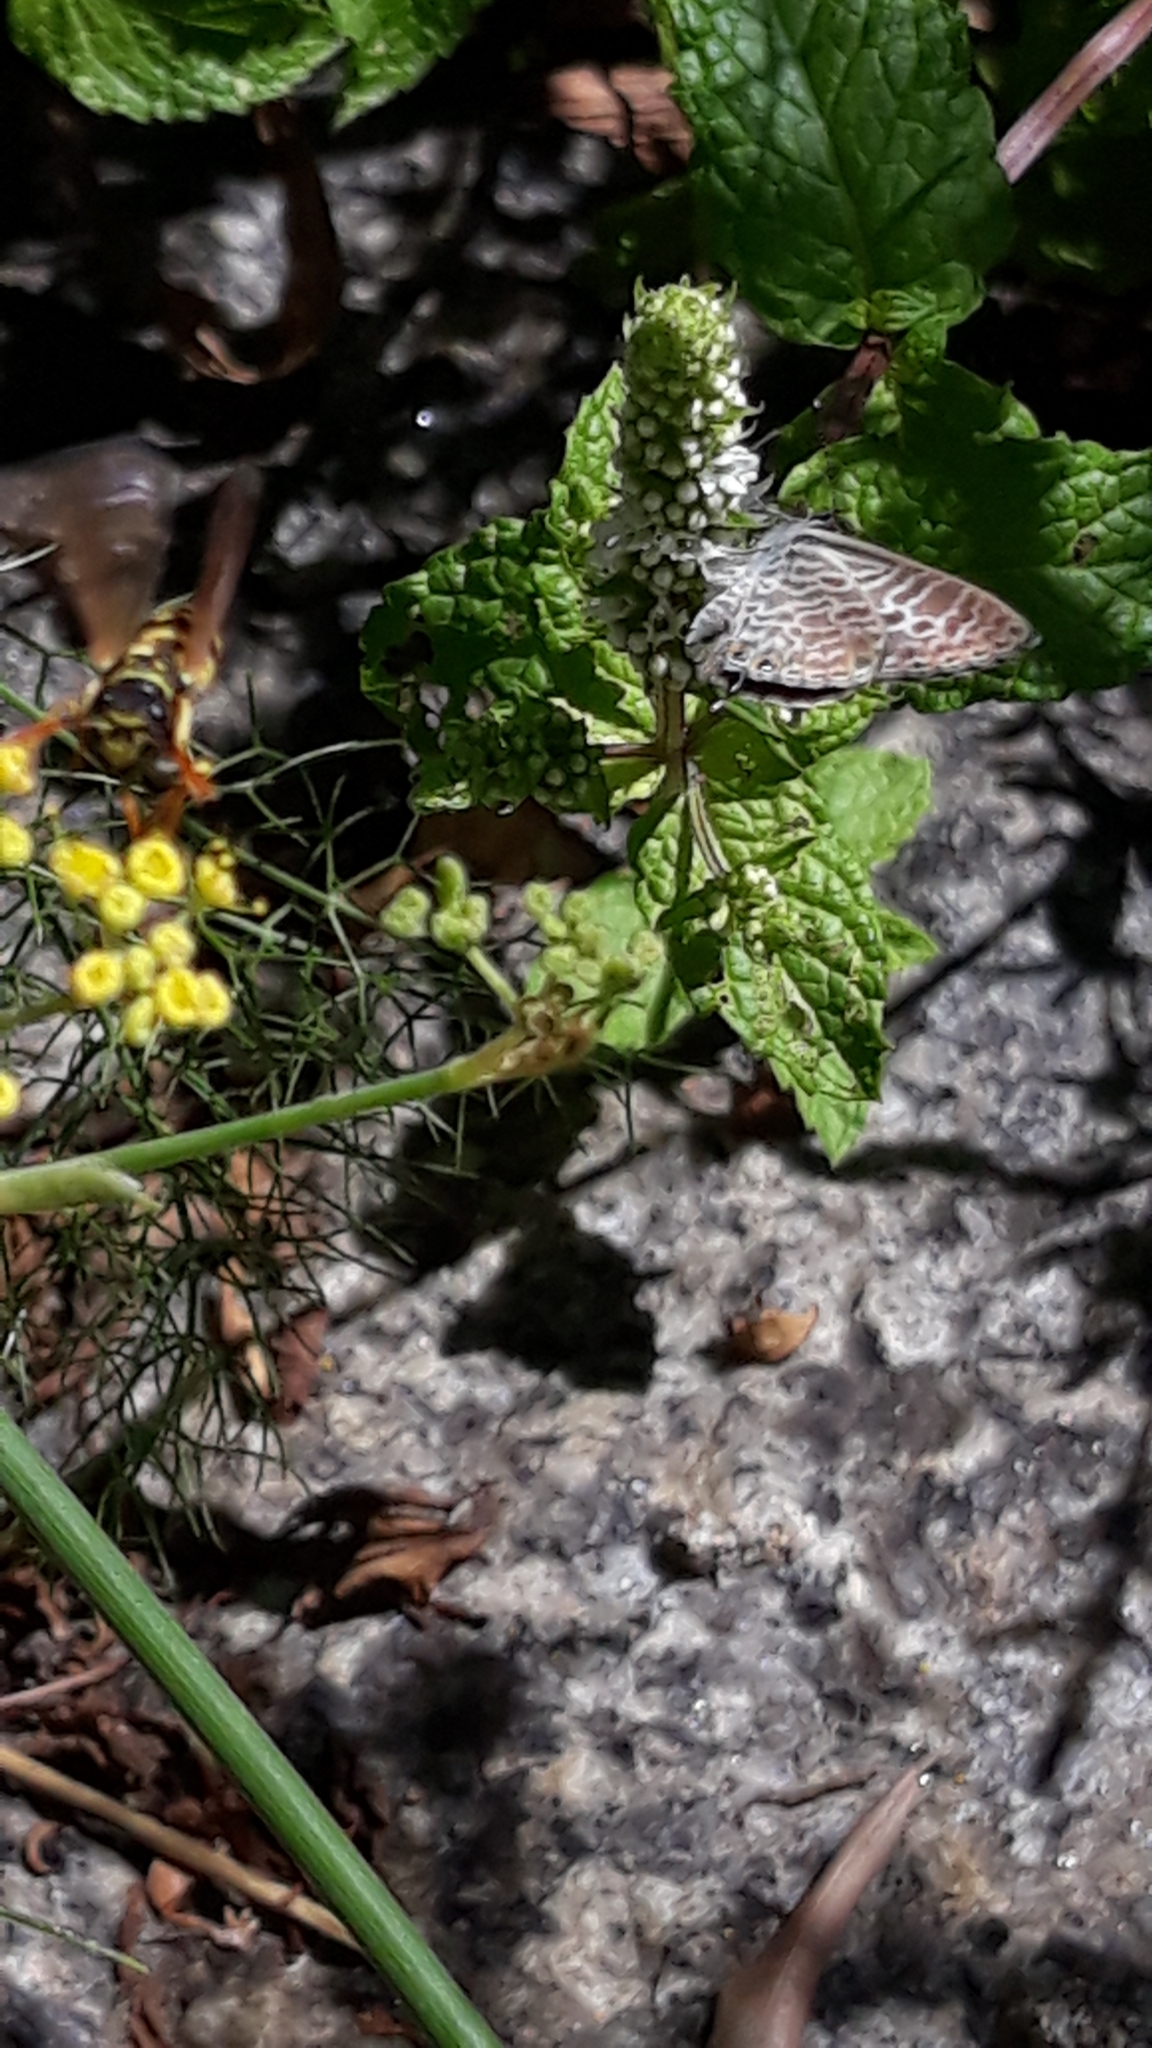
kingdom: Animalia
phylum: Arthropoda
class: Insecta
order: Lepidoptera
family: Lycaenidae
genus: Leptotes
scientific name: Leptotes pirithous
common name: Lang's short-tailed blue
